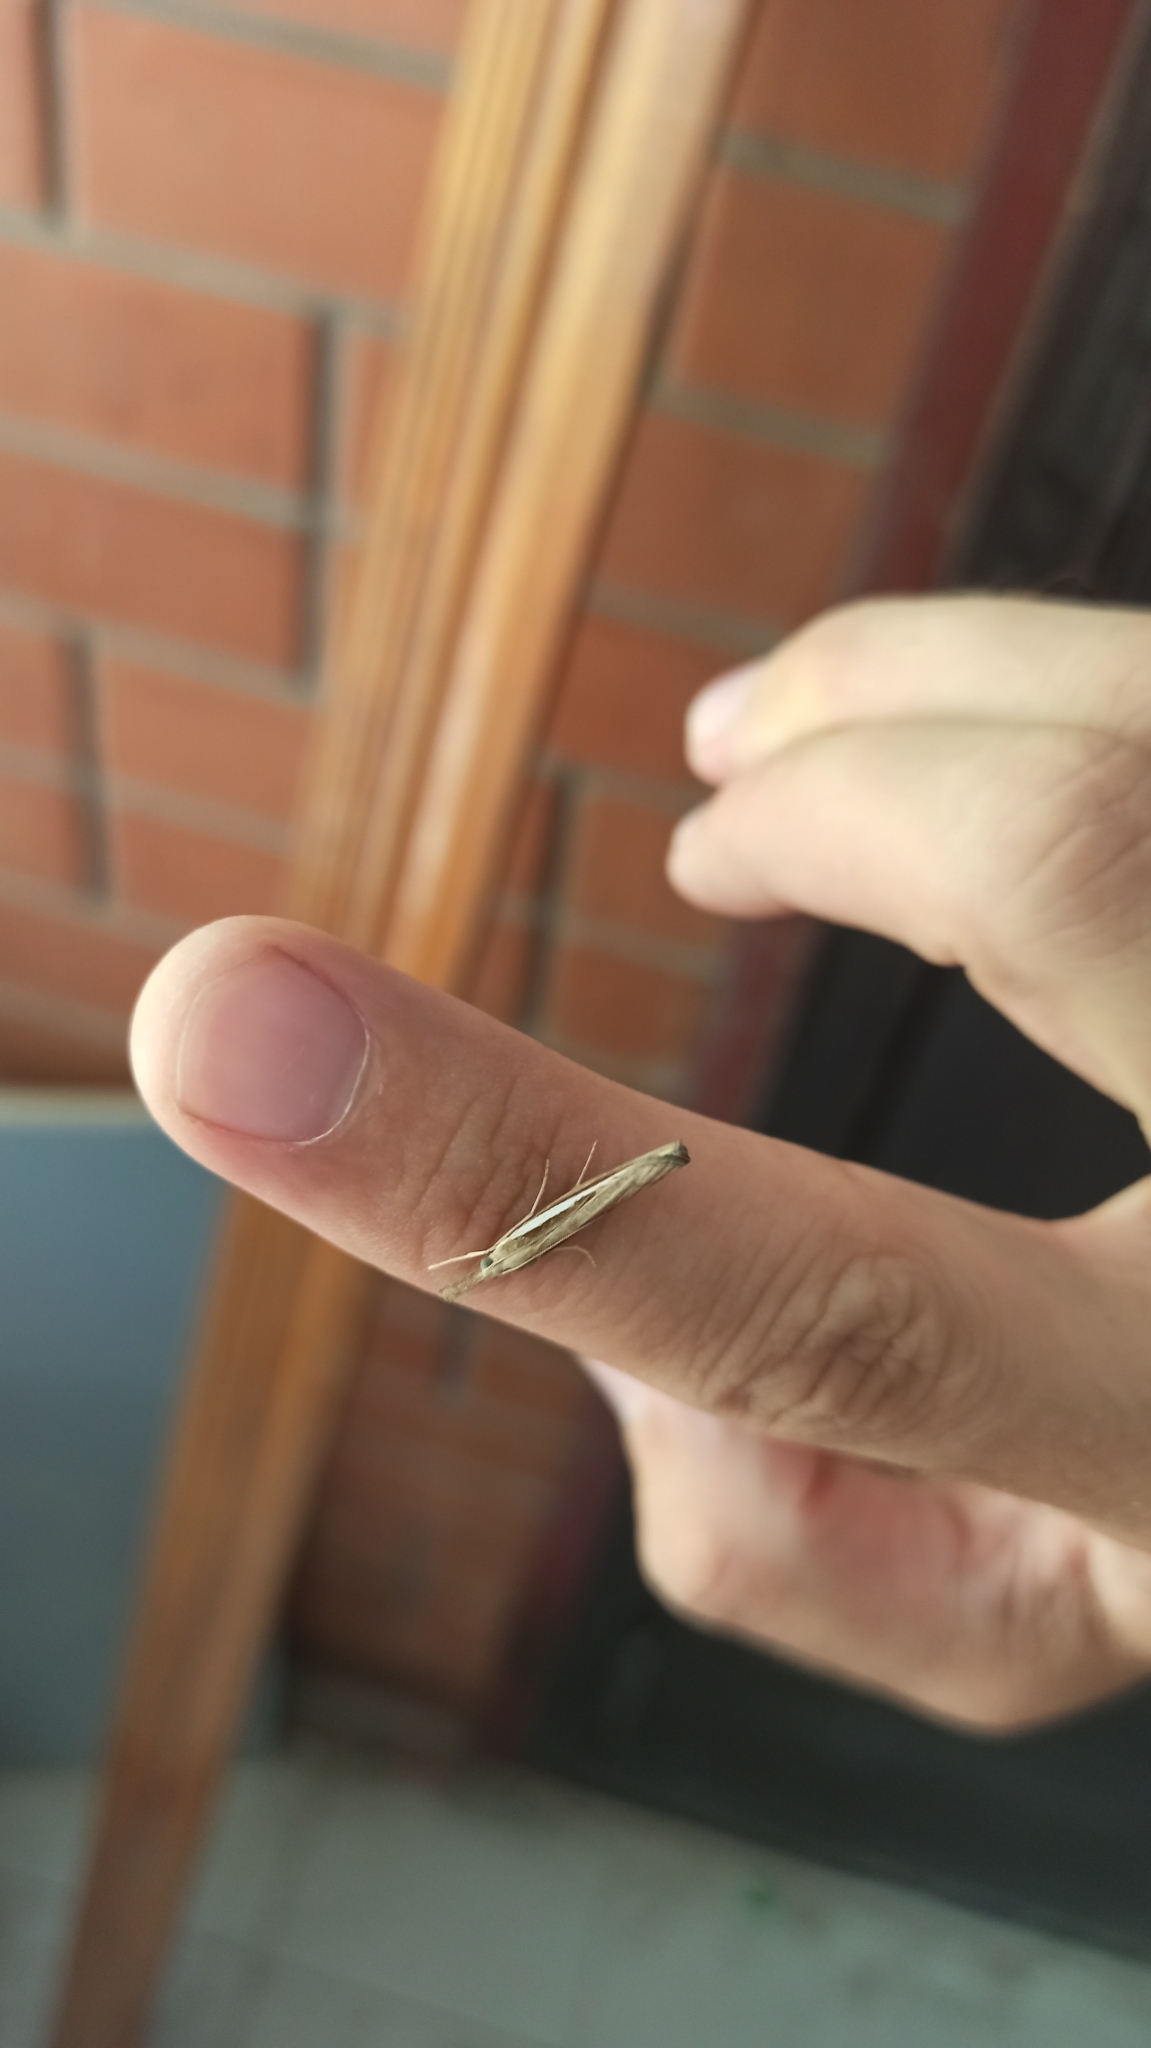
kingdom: Animalia
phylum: Arthropoda
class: Insecta
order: Lepidoptera
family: Crambidae
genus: Agriphila
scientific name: Agriphila tristellus
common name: Common grass-veneer
